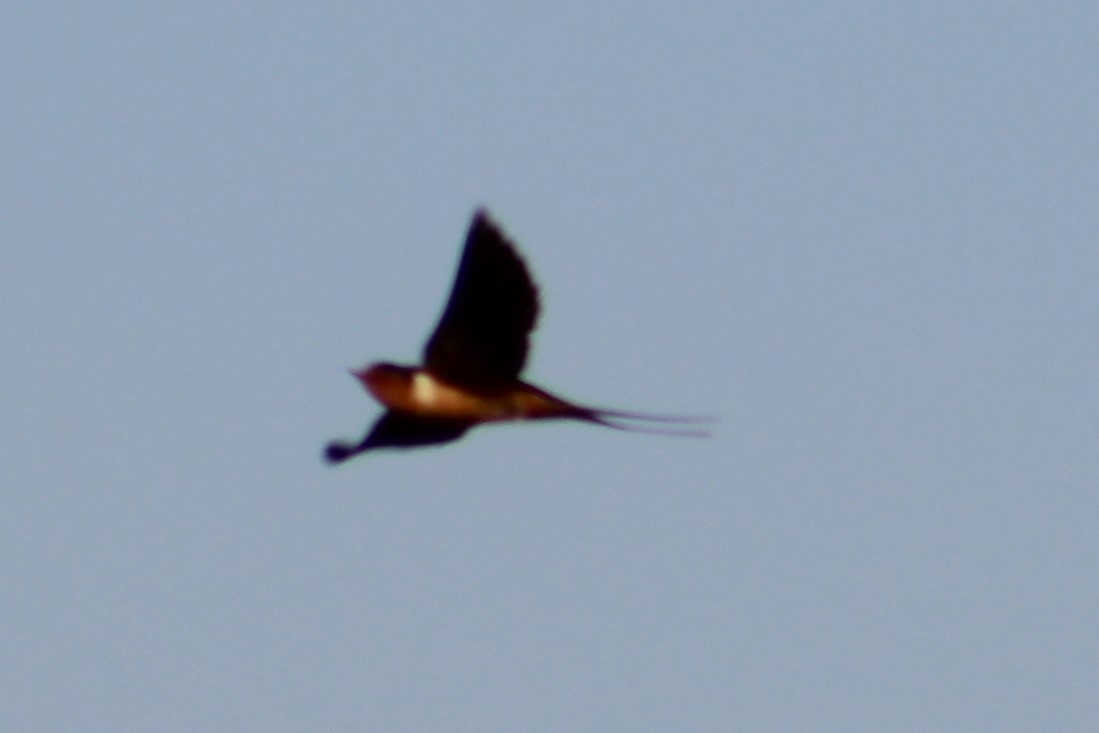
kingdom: Animalia
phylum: Chordata
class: Aves
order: Passeriformes
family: Hirundinidae
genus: Hirundo
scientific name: Hirundo rustica
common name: Barn swallow
